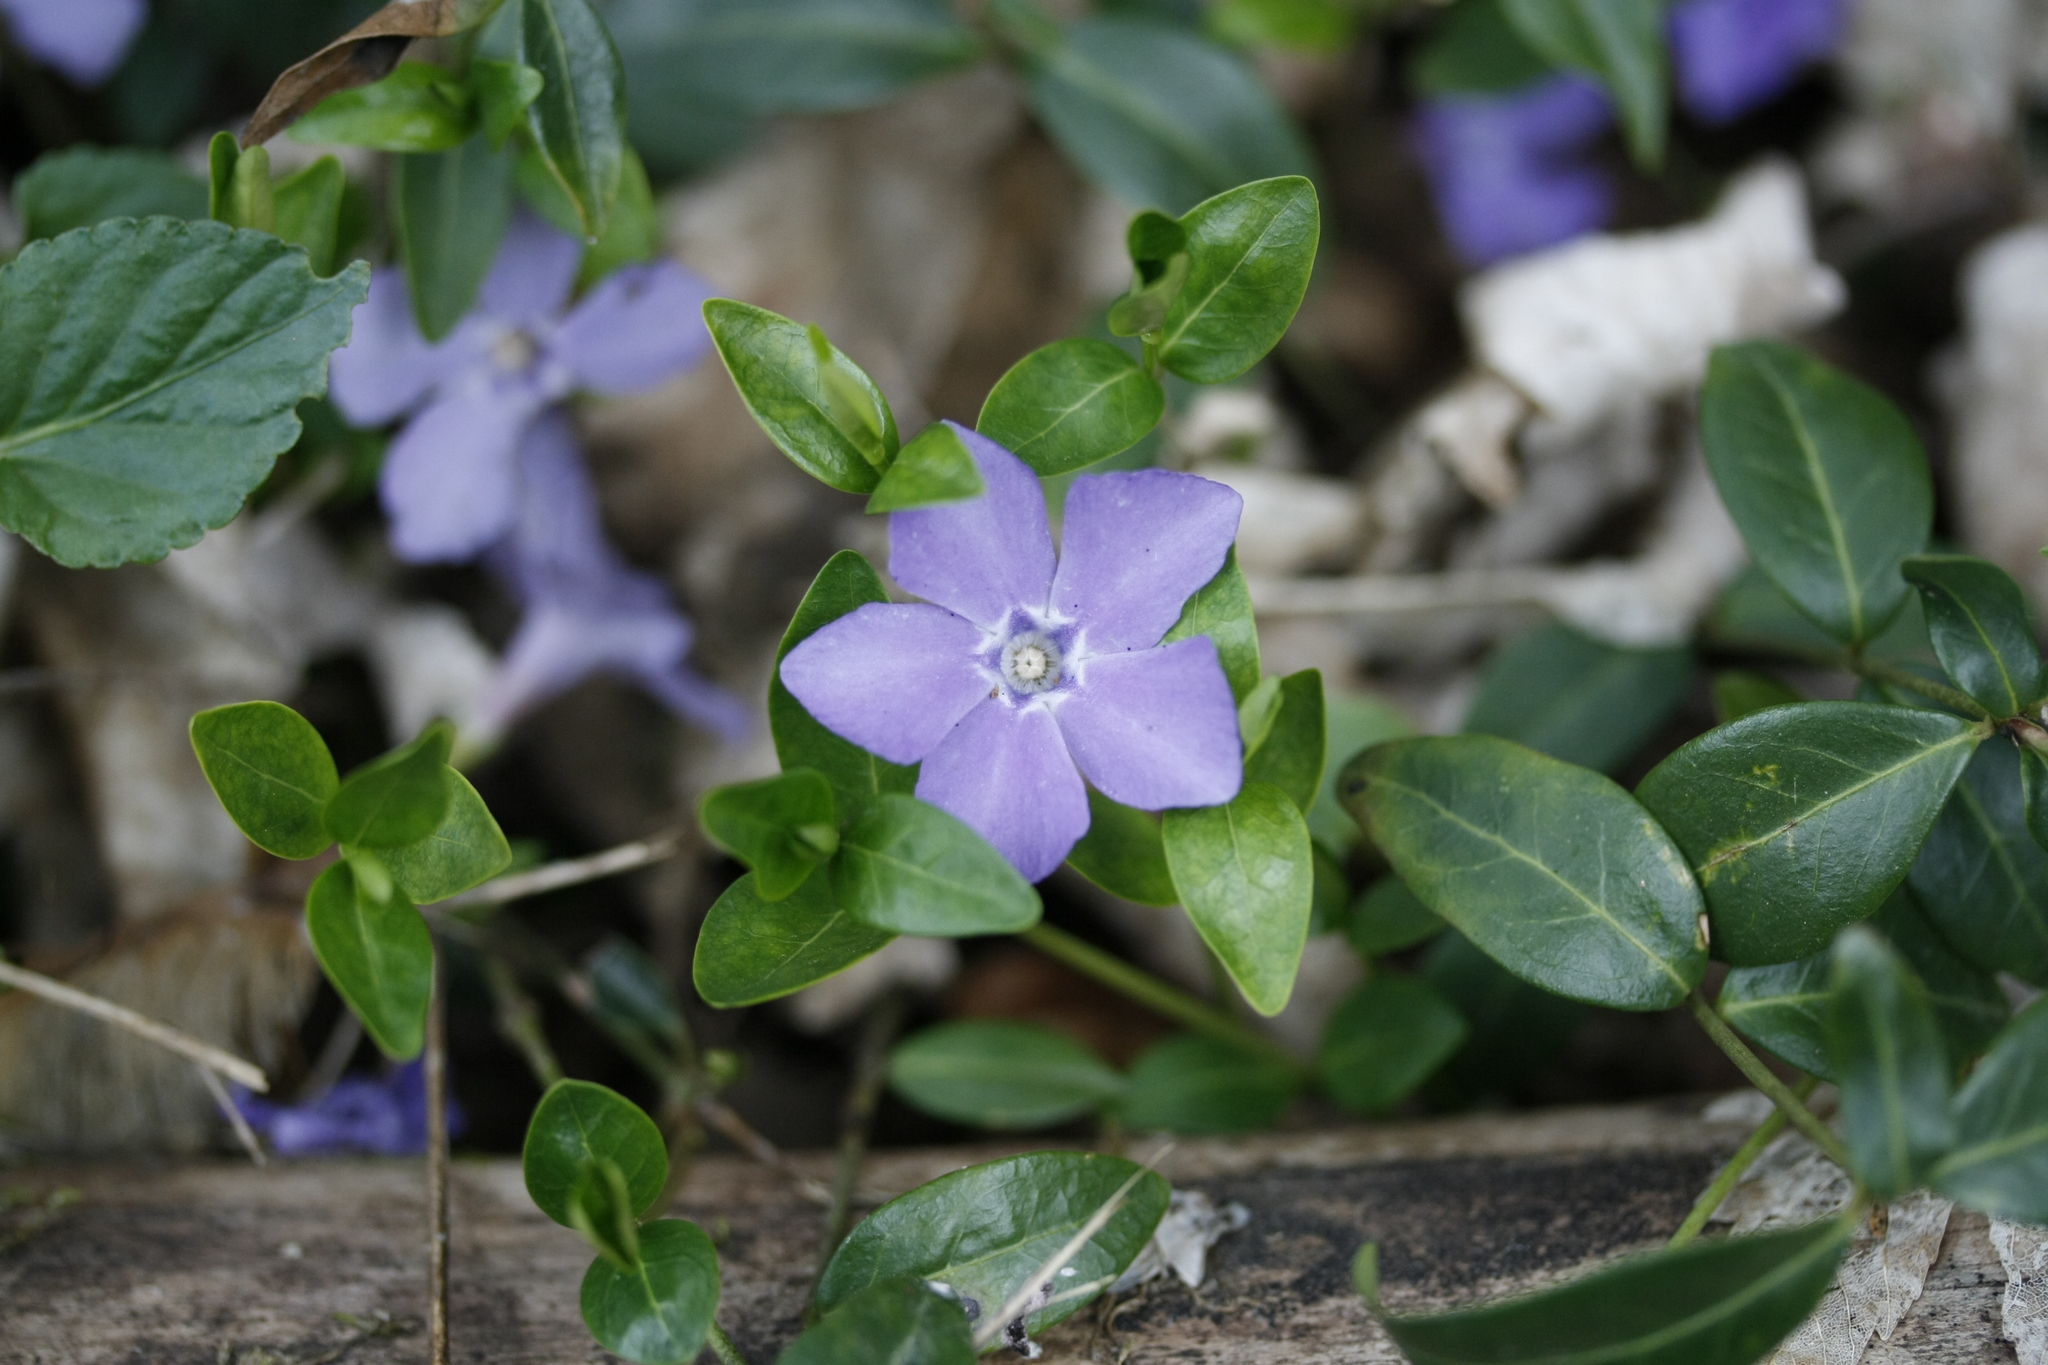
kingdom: Plantae
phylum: Tracheophyta
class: Magnoliopsida
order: Gentianales
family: Apocynaceae
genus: Vinca
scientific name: Vinca minor
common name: Lesser periwinkle
